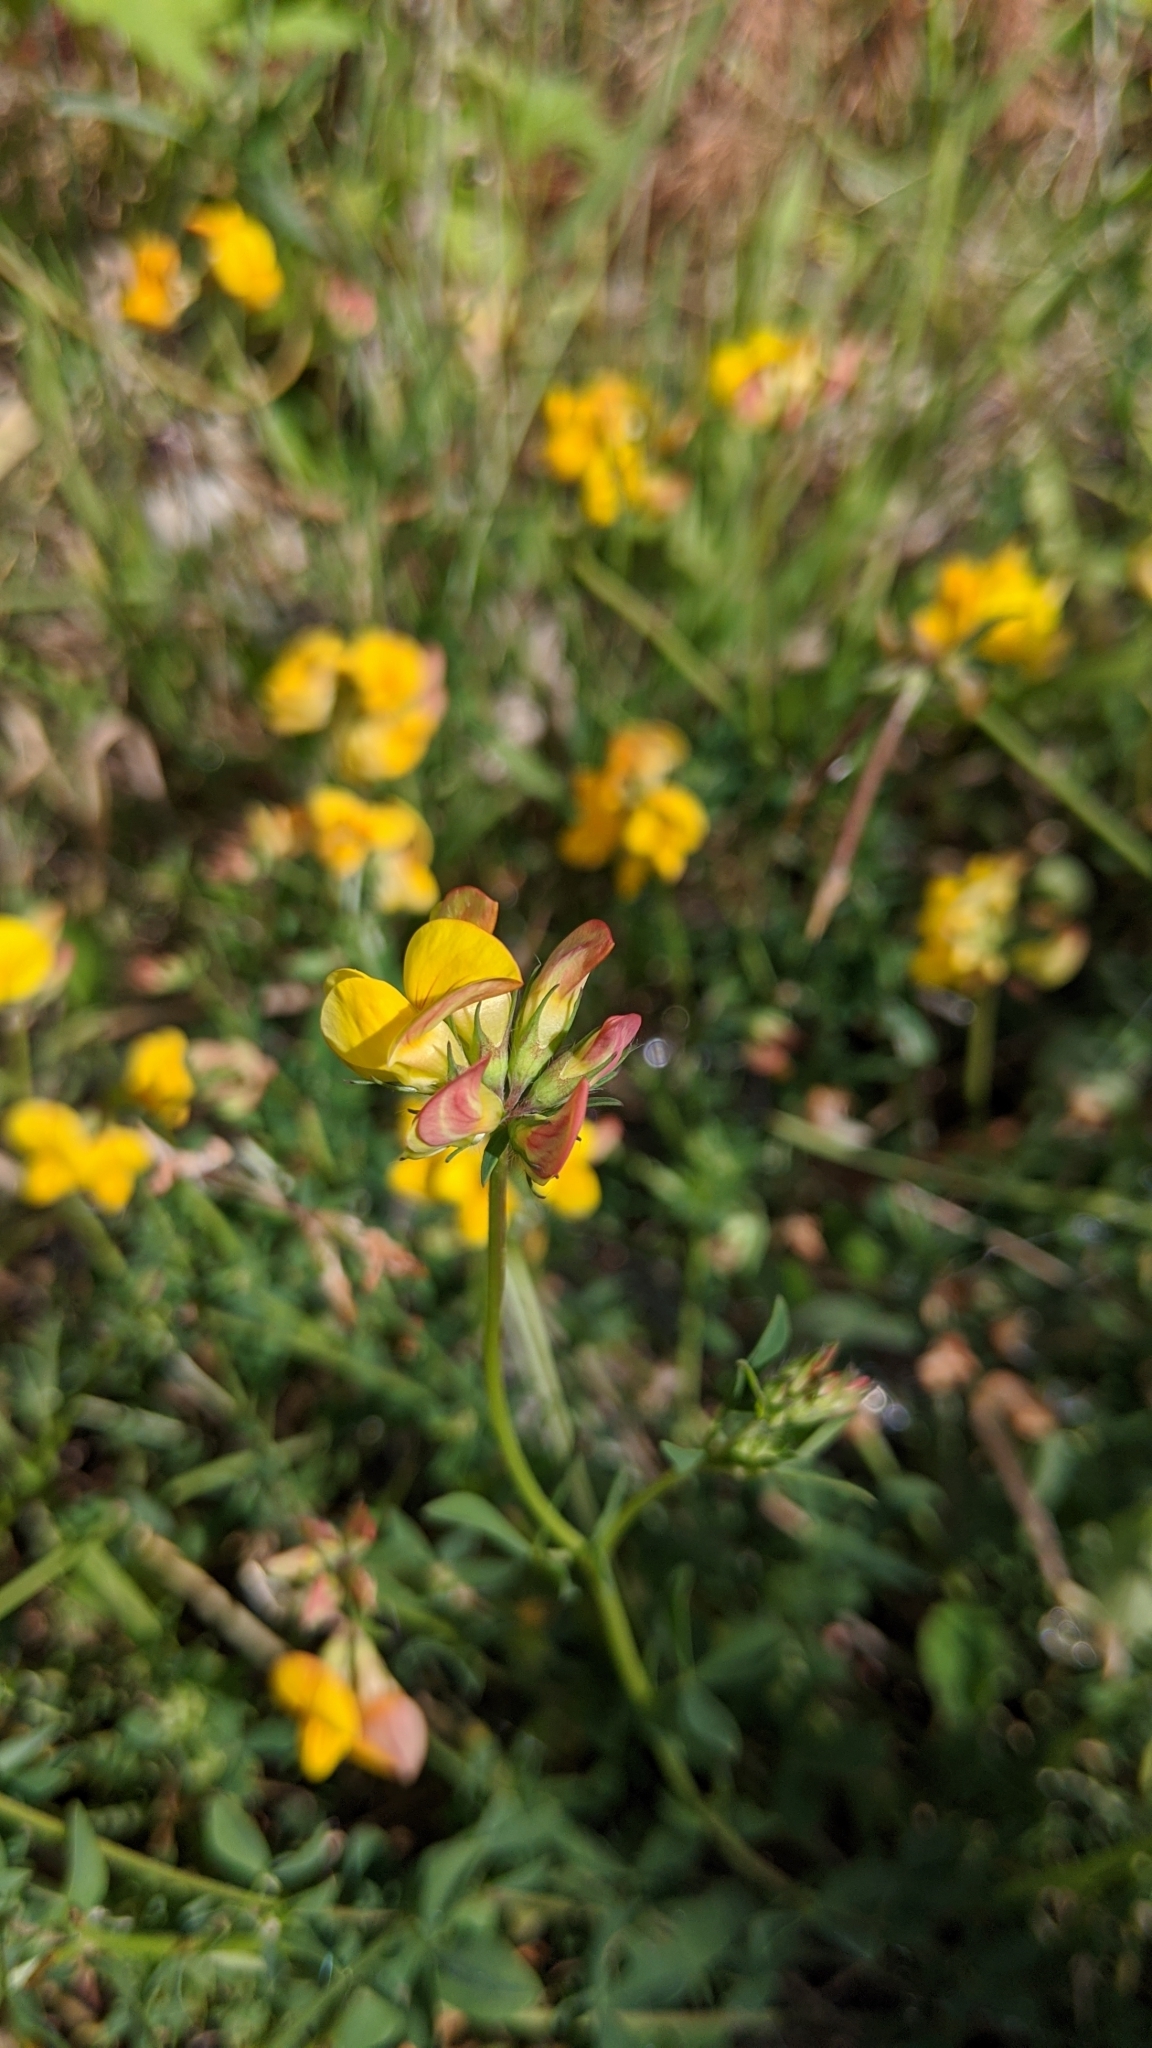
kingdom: Plantae
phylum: Tracheophyta
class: Magnoliopsida
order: Fabales
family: Fabaceae
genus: Lotus
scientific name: Lotus corniculatus
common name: Common bird's-foot-trefoil
